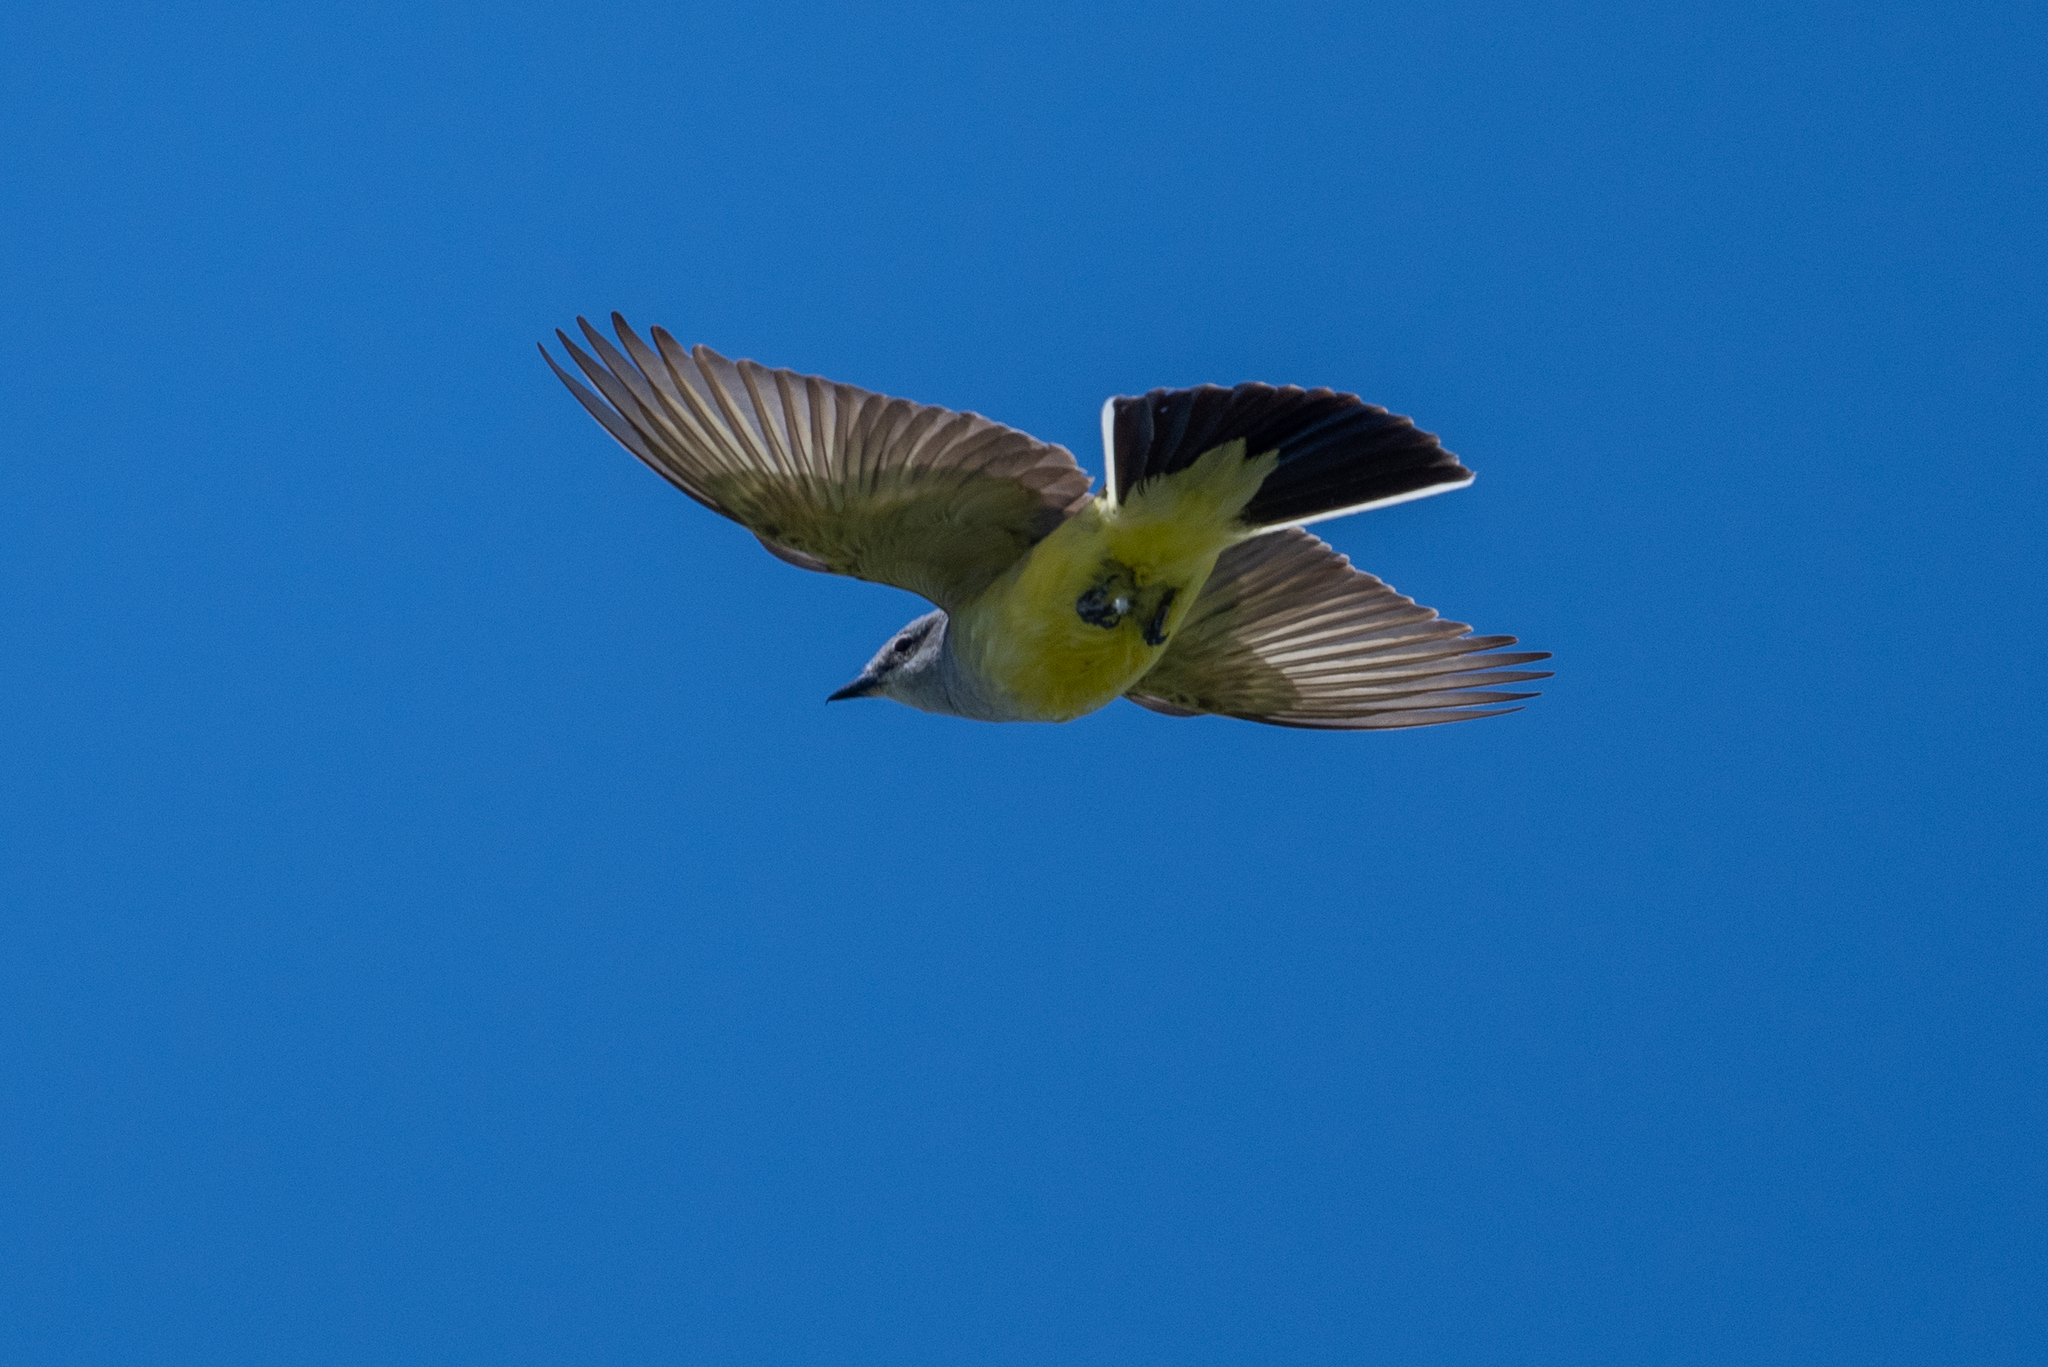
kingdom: Animalia
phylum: Chordata
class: Aves
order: Passeriformes
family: Tyrannidae
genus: Tyrannus
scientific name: Tyrannus verticalis
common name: Western kingbird
